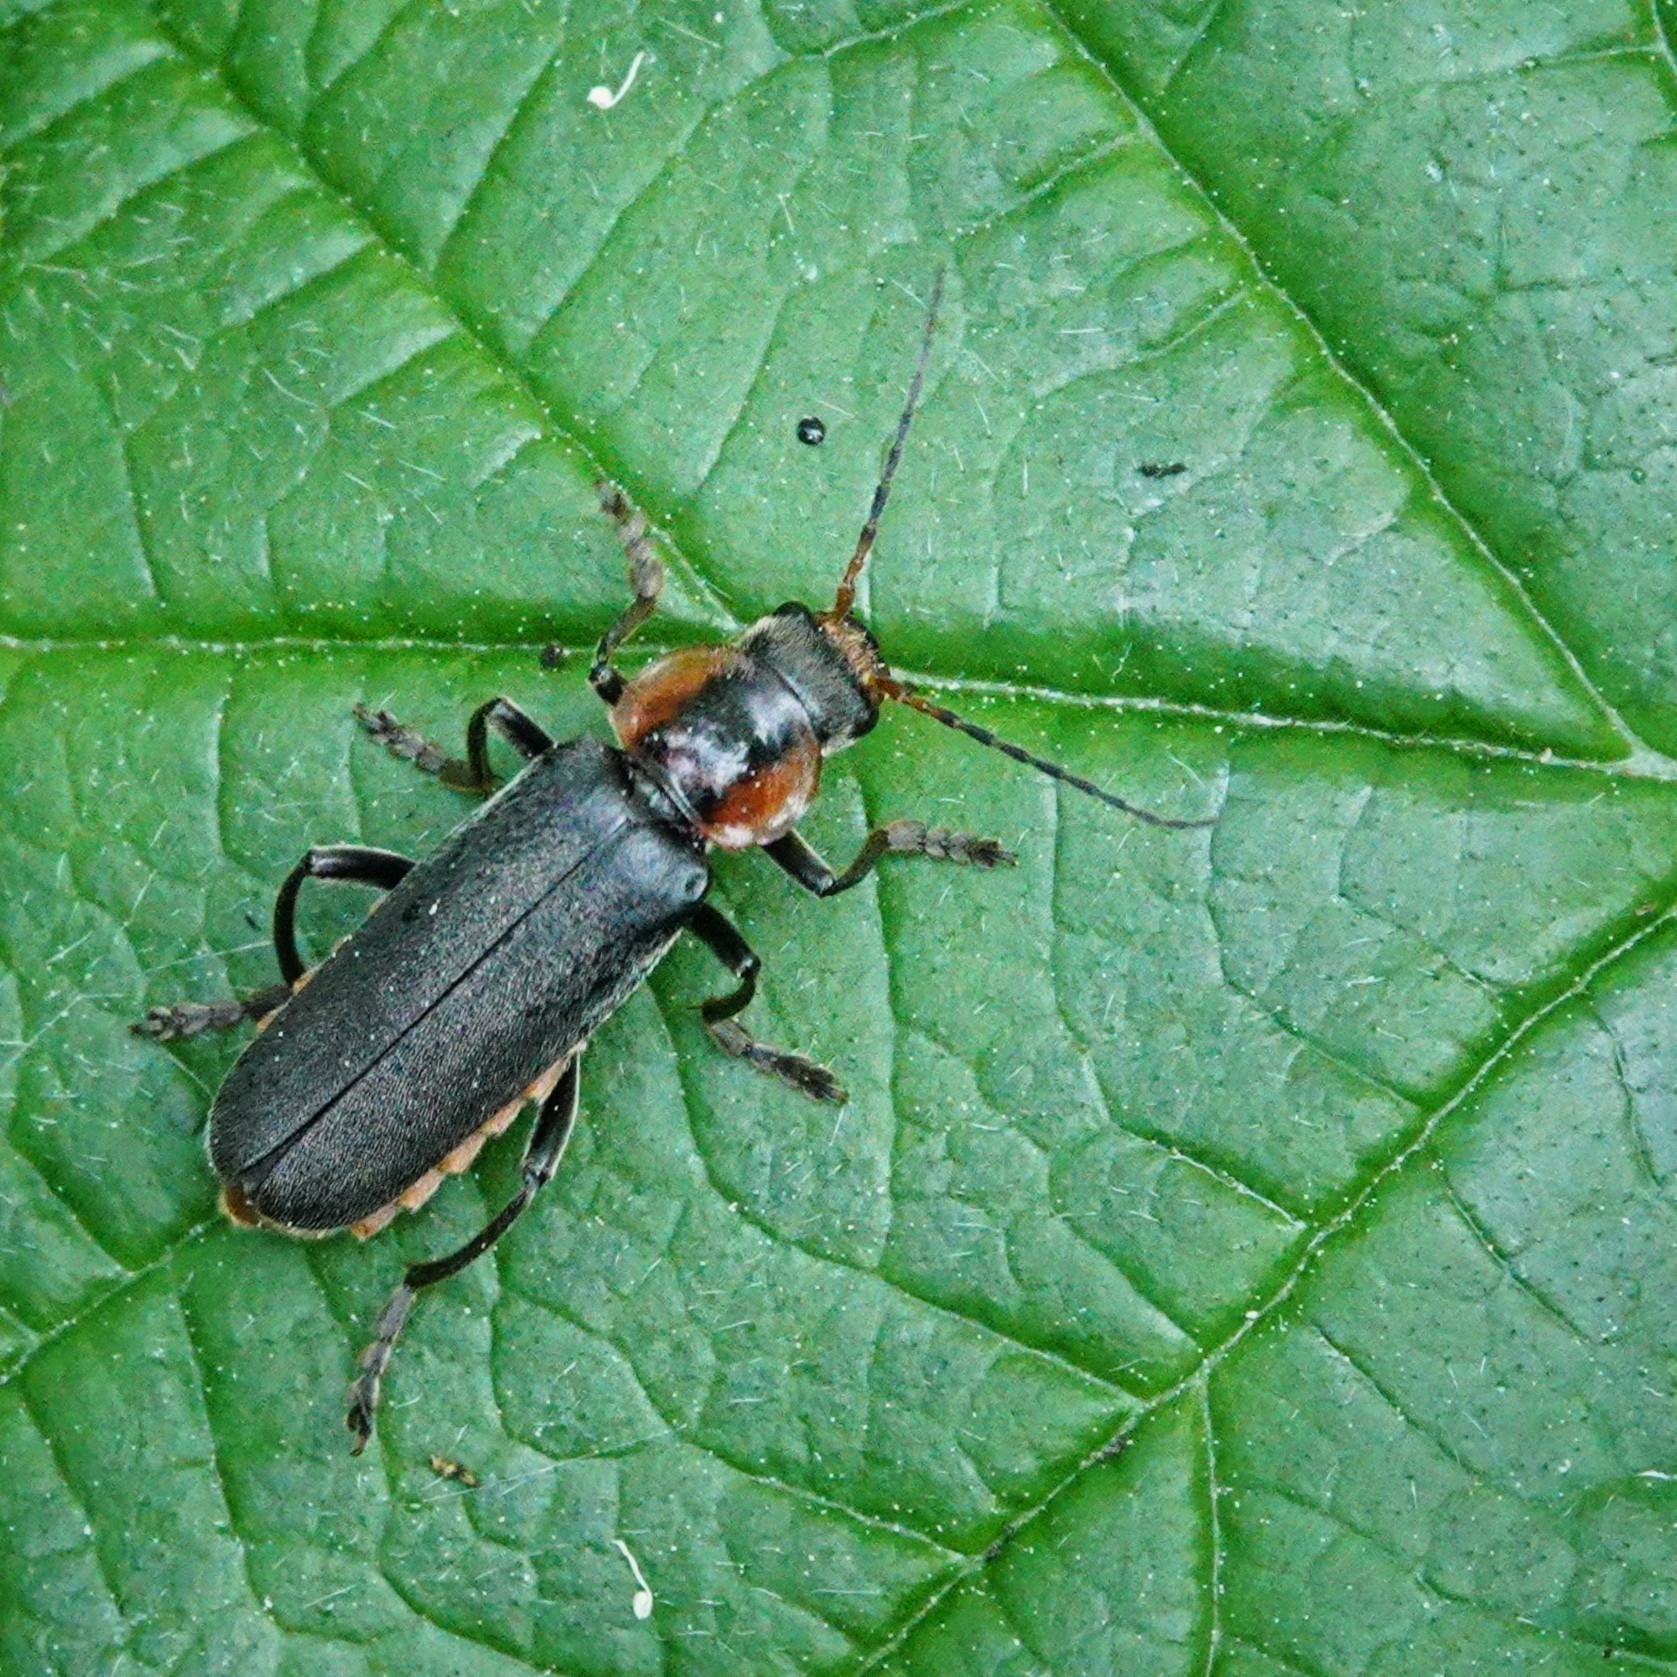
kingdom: Animalia
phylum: Arthropoda
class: Insecta
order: Coleoptera
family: Cantharidae
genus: Cantharis
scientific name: Cantharis fusca
